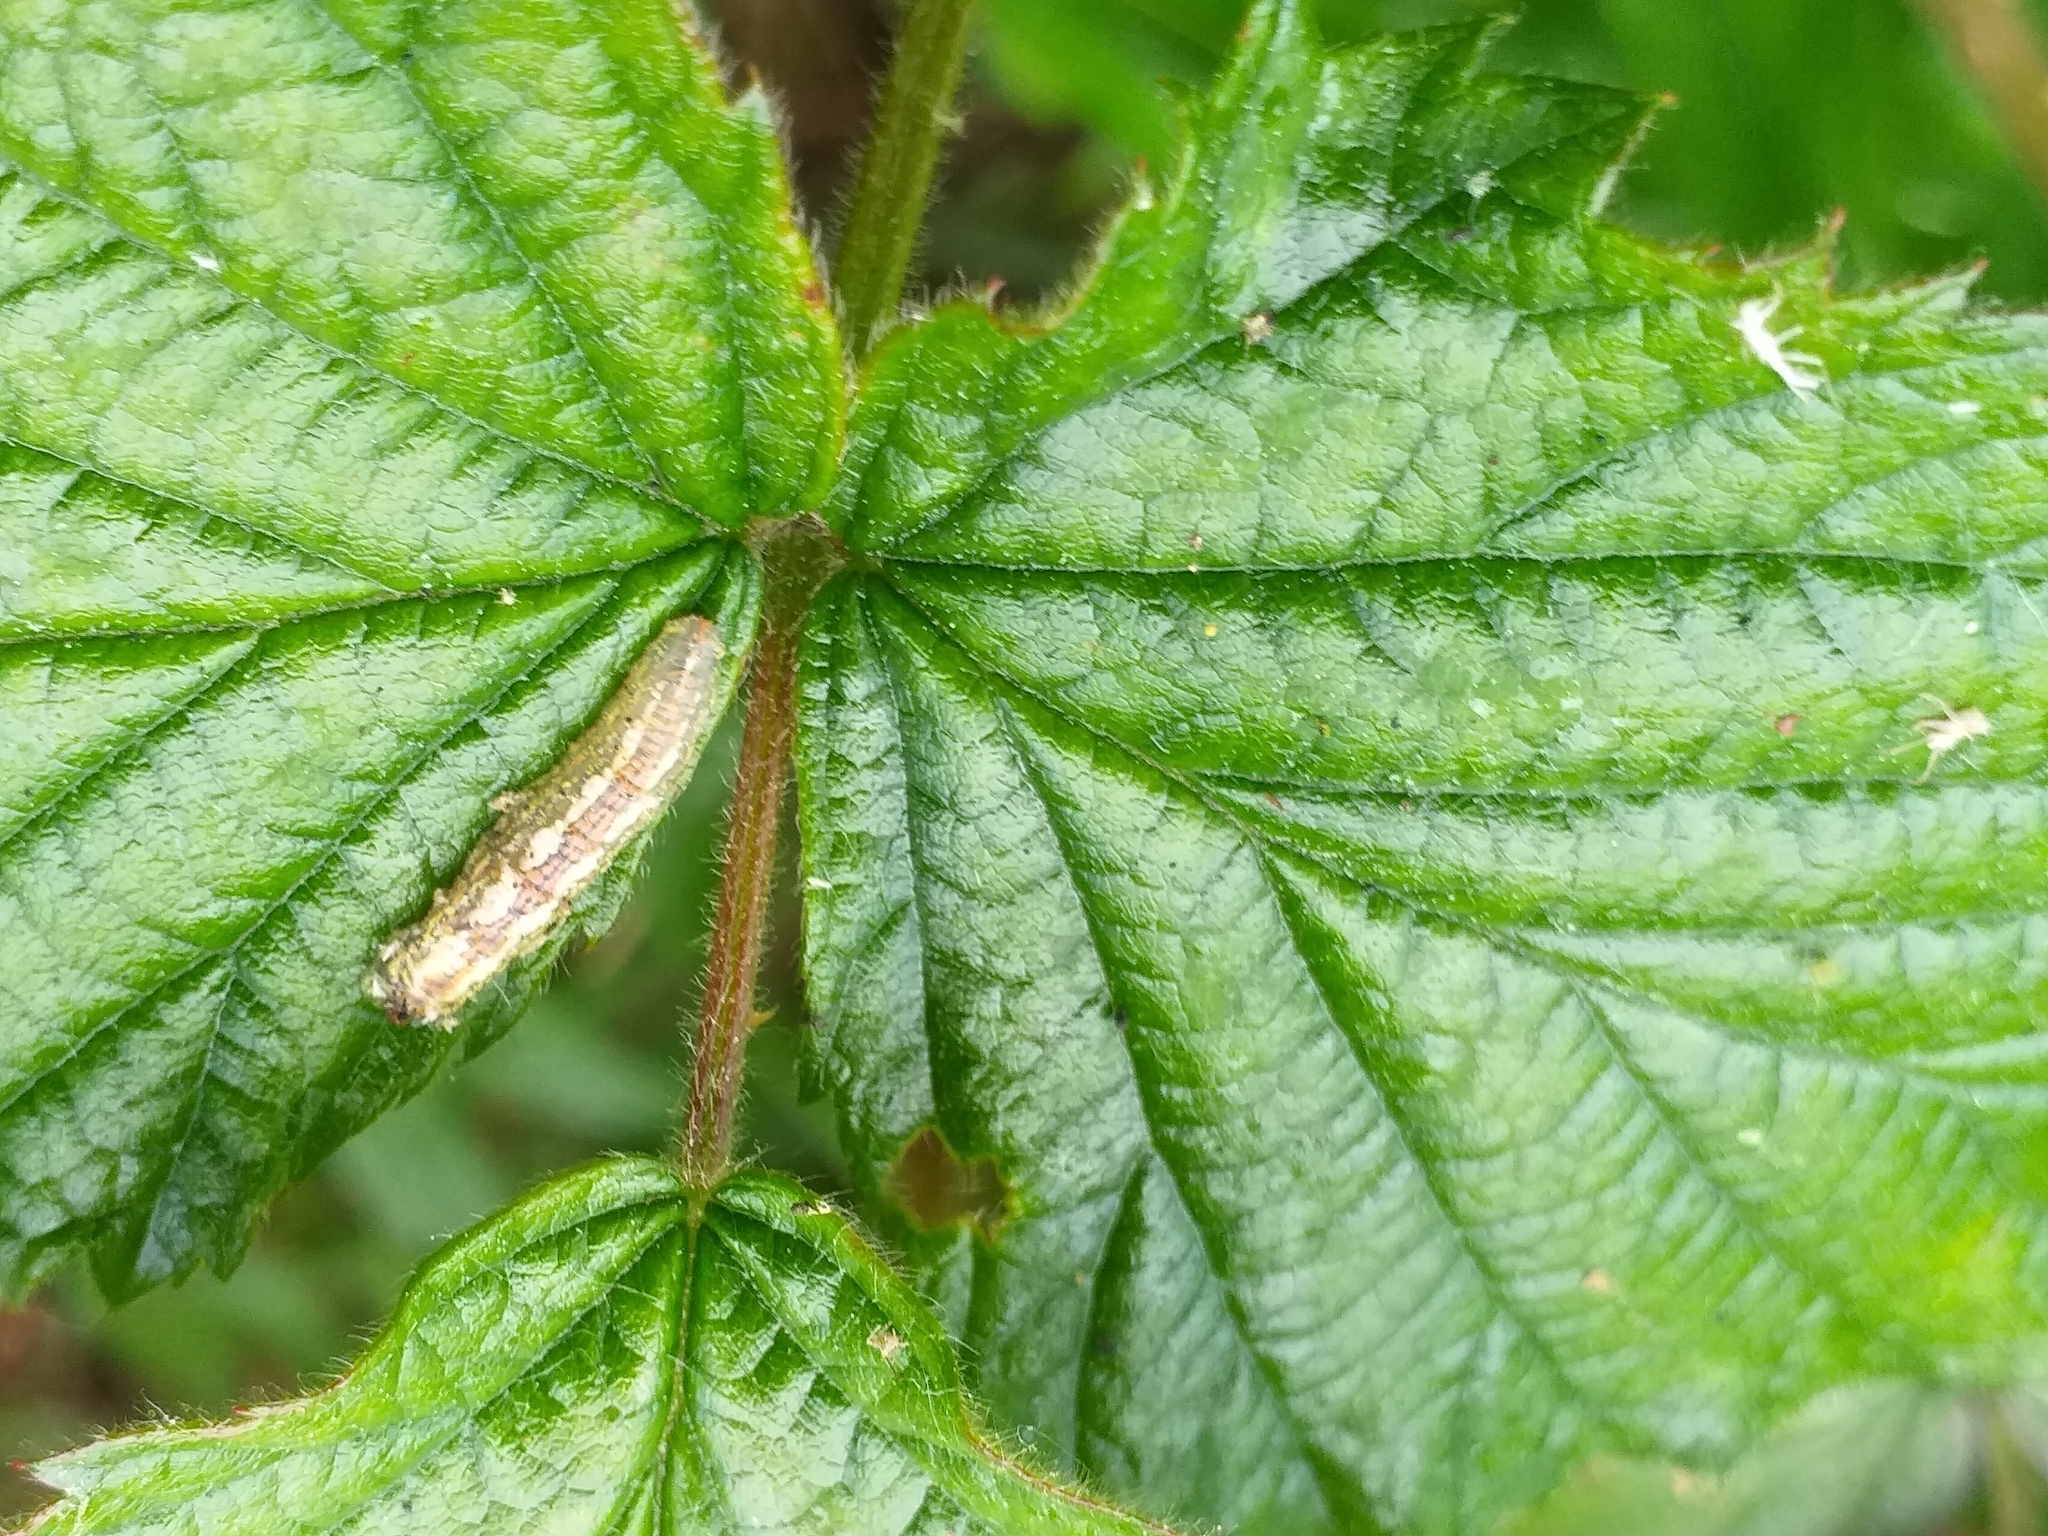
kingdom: Animalia
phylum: Arthropoda
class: Insecta
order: Diptera
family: Syrphidae
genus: Syrphus
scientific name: Syrphus
